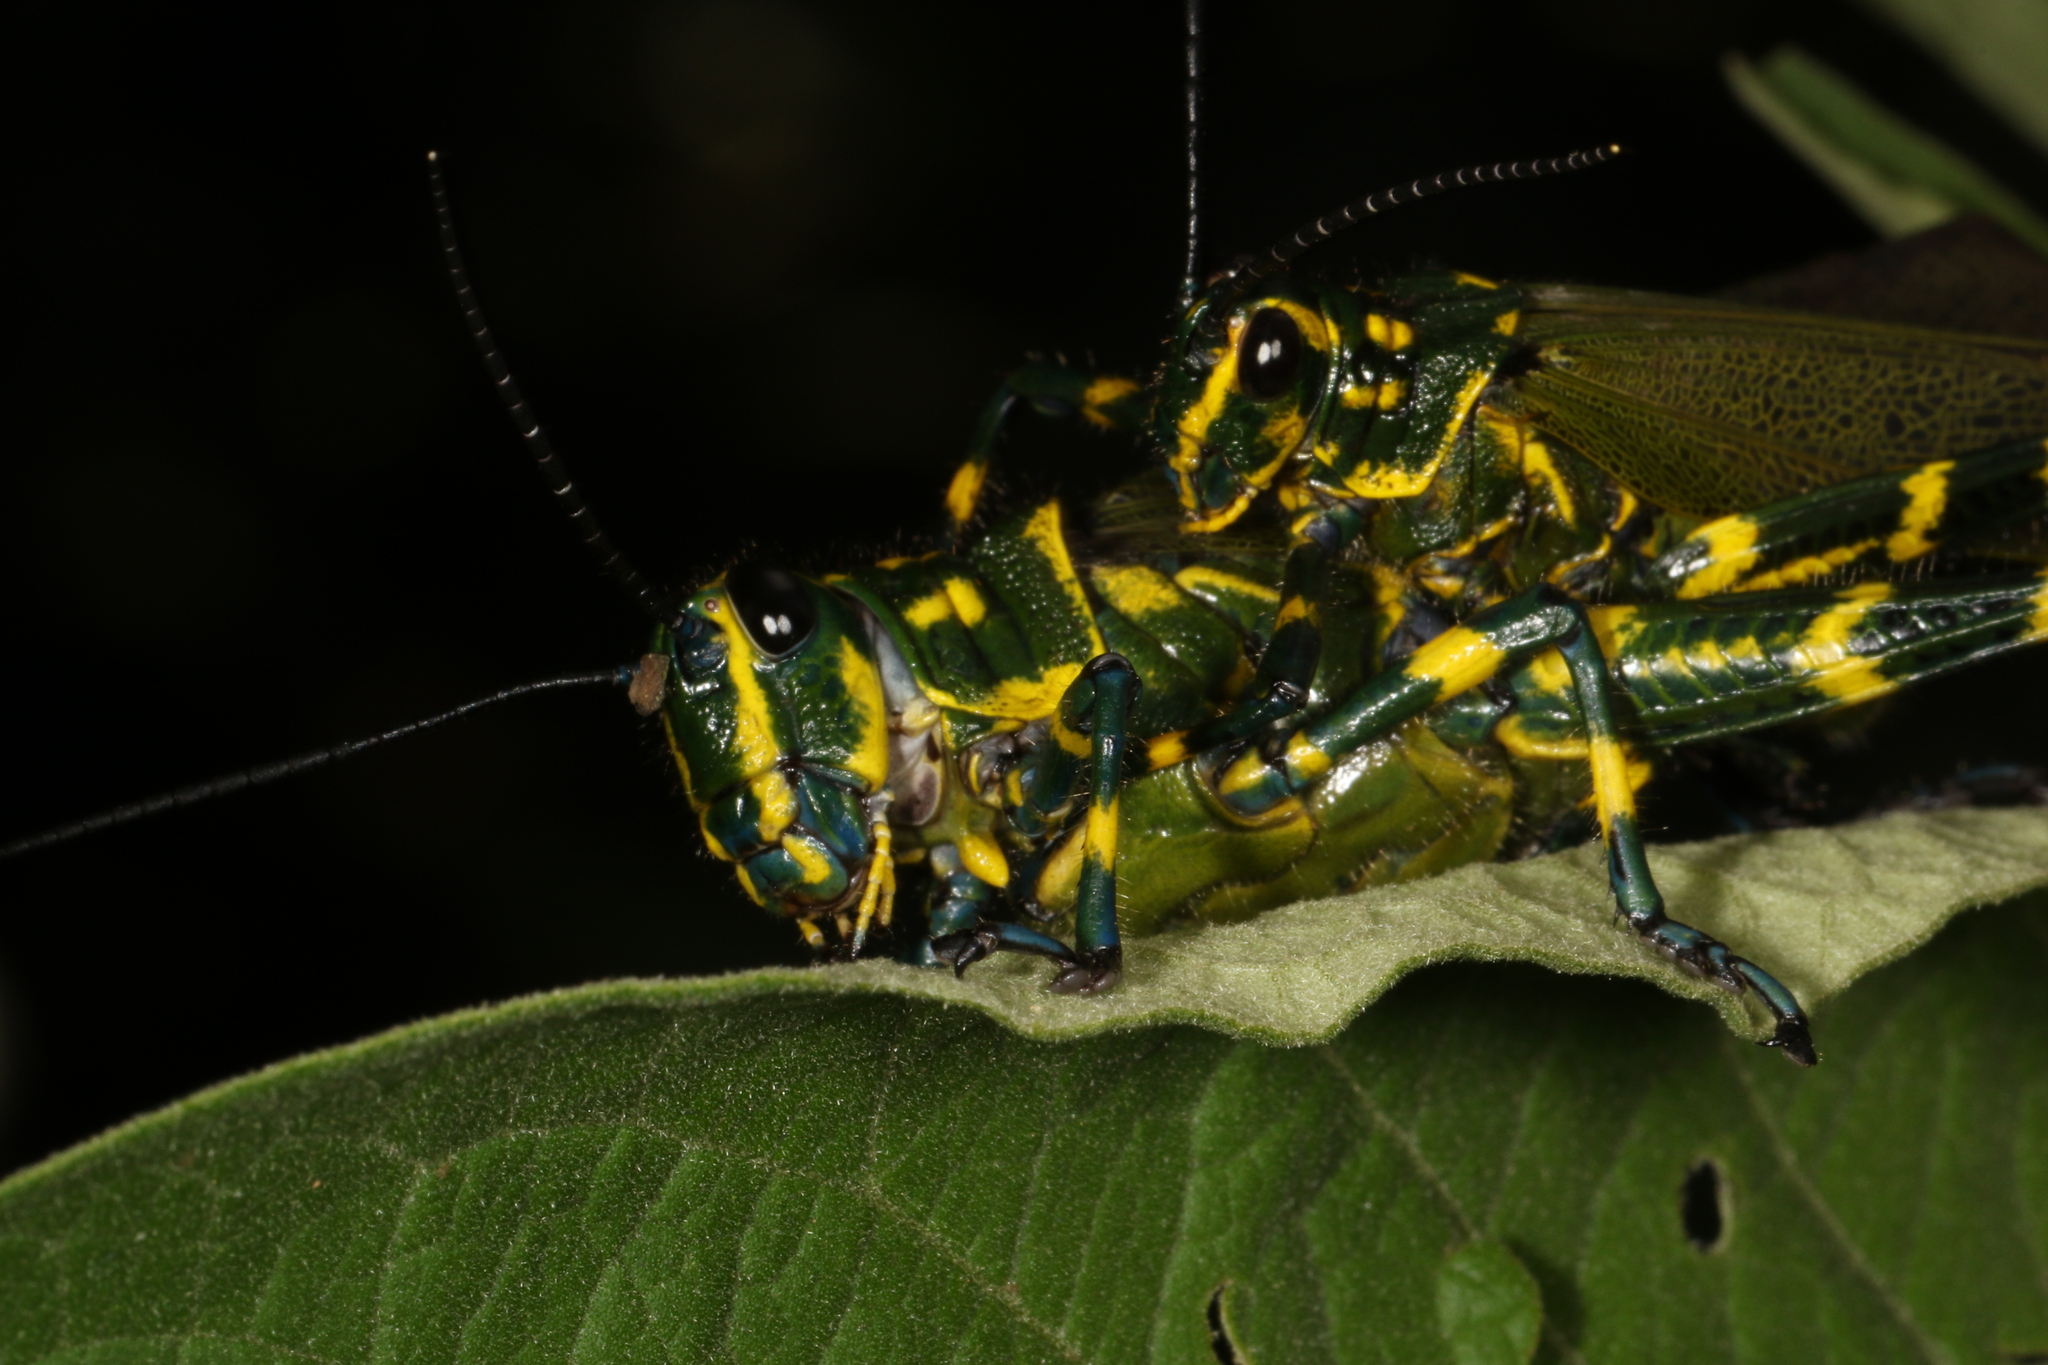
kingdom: Animalia
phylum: Arthropoda
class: Insecta
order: Orthoptera
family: Romaleidae
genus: Chromacris
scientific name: Chromacris speciosa
